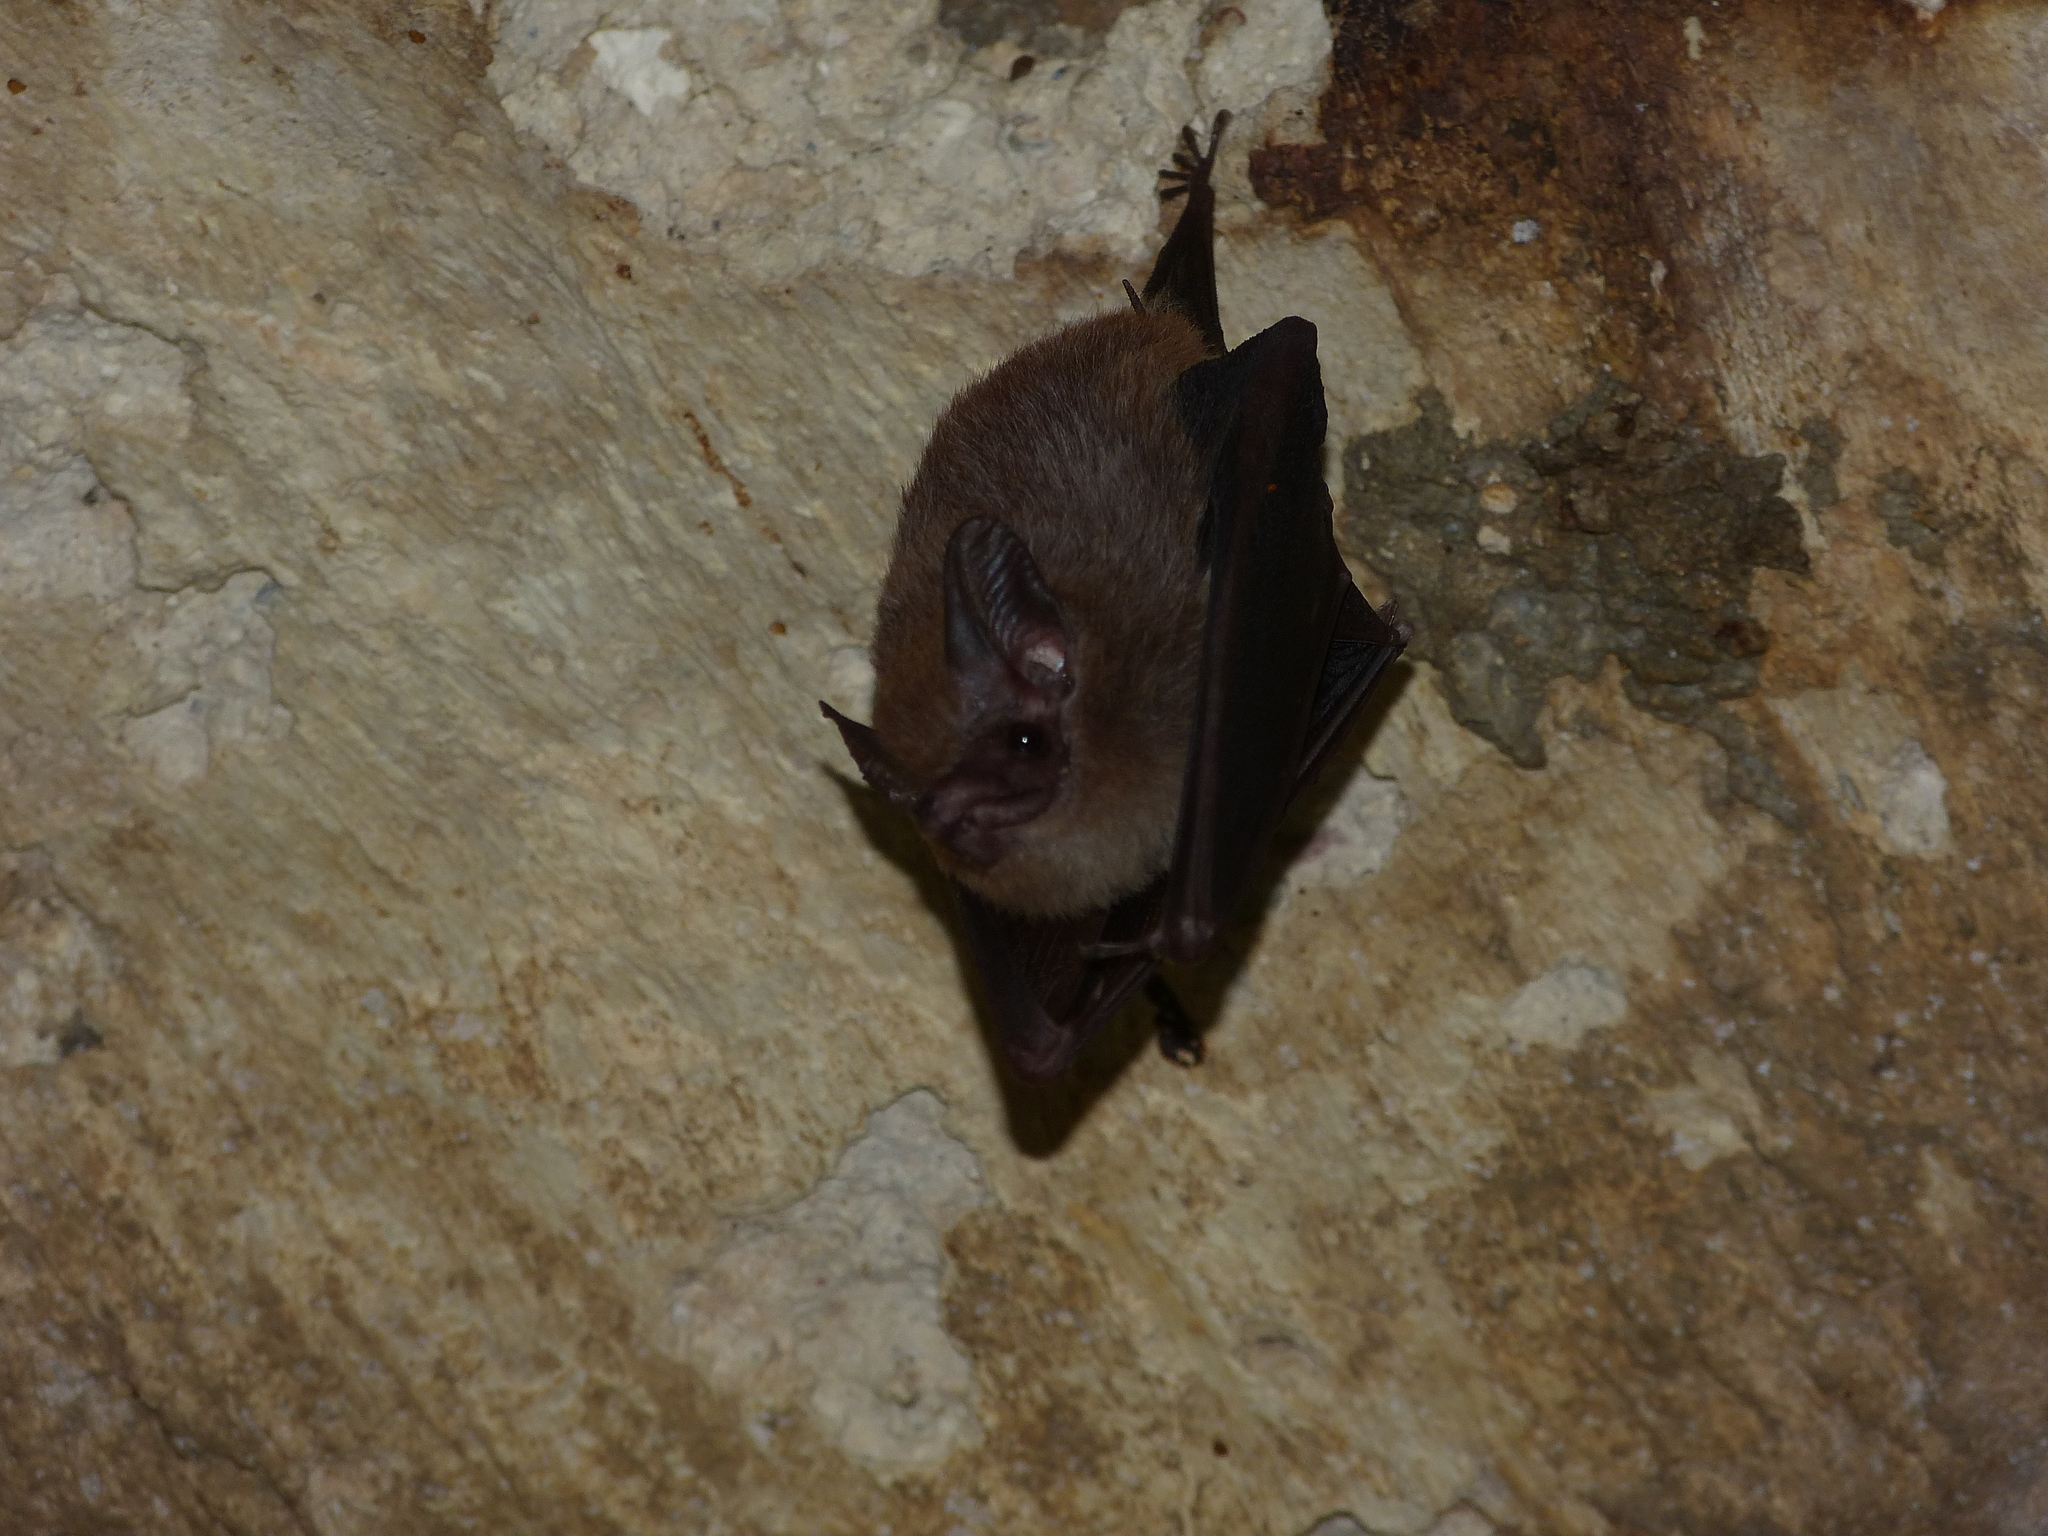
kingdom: Animalia
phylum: Chordata
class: Mammalia
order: Chiroptera
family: Emballonuridae
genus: Peropteryx
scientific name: Peropteryx macrotis
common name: Lesser dog-like bat
